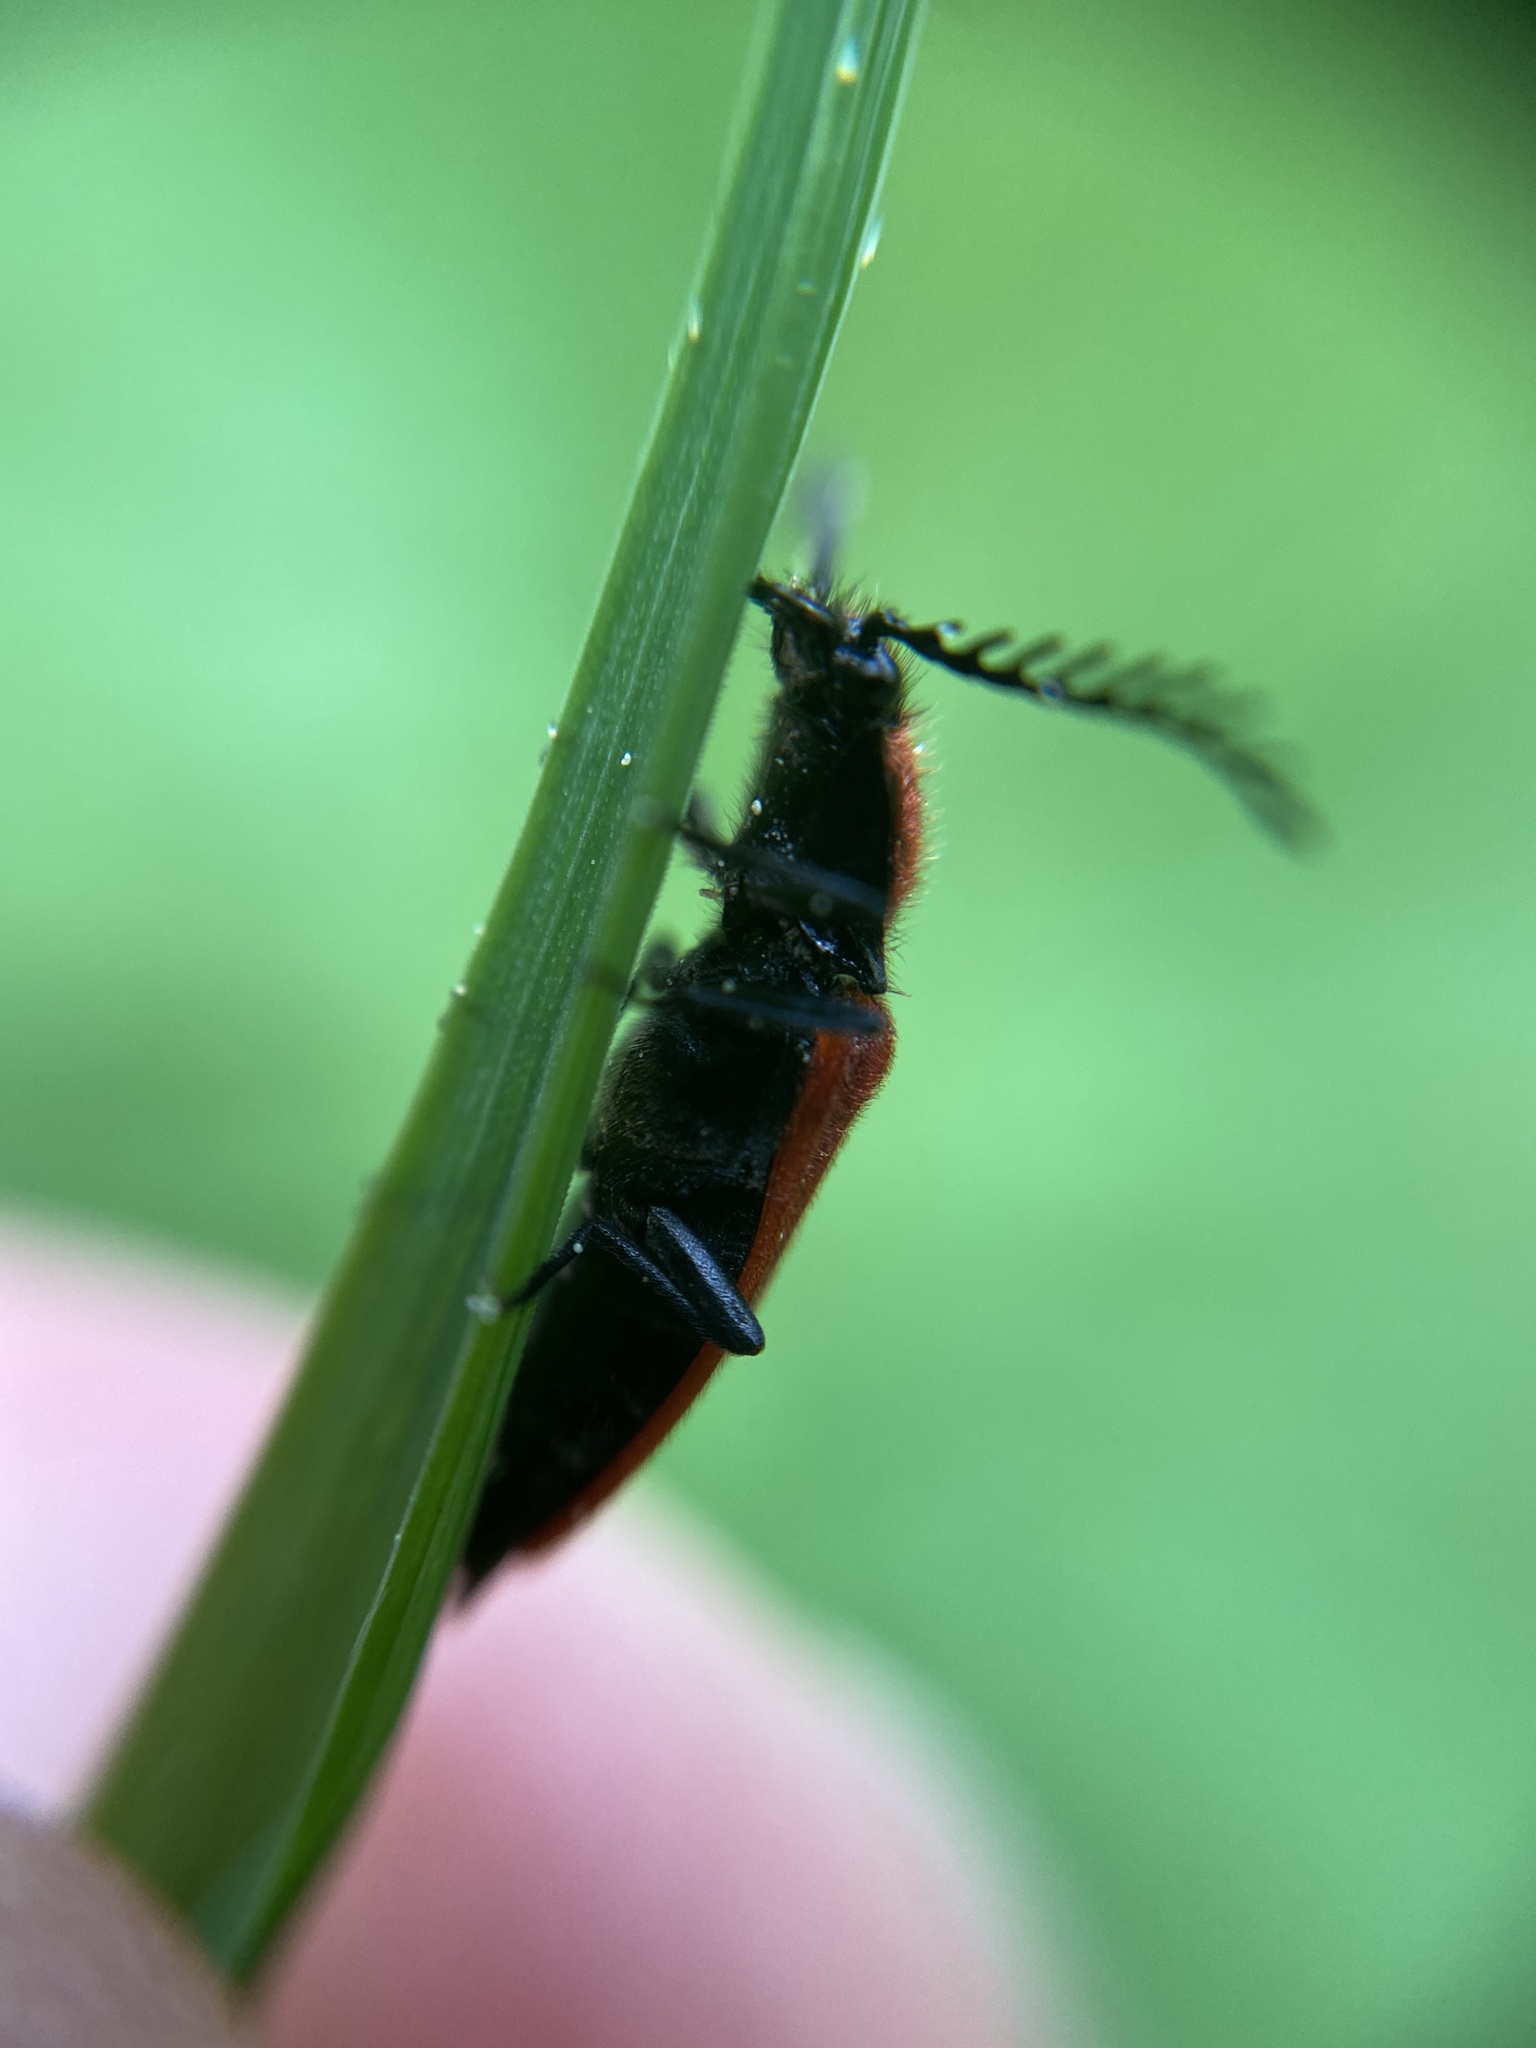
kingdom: Animalia
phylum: Arthropoda
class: Insecta
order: Coleoptera
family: Elateridae
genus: Anostirus
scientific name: Anostirus purpureus
